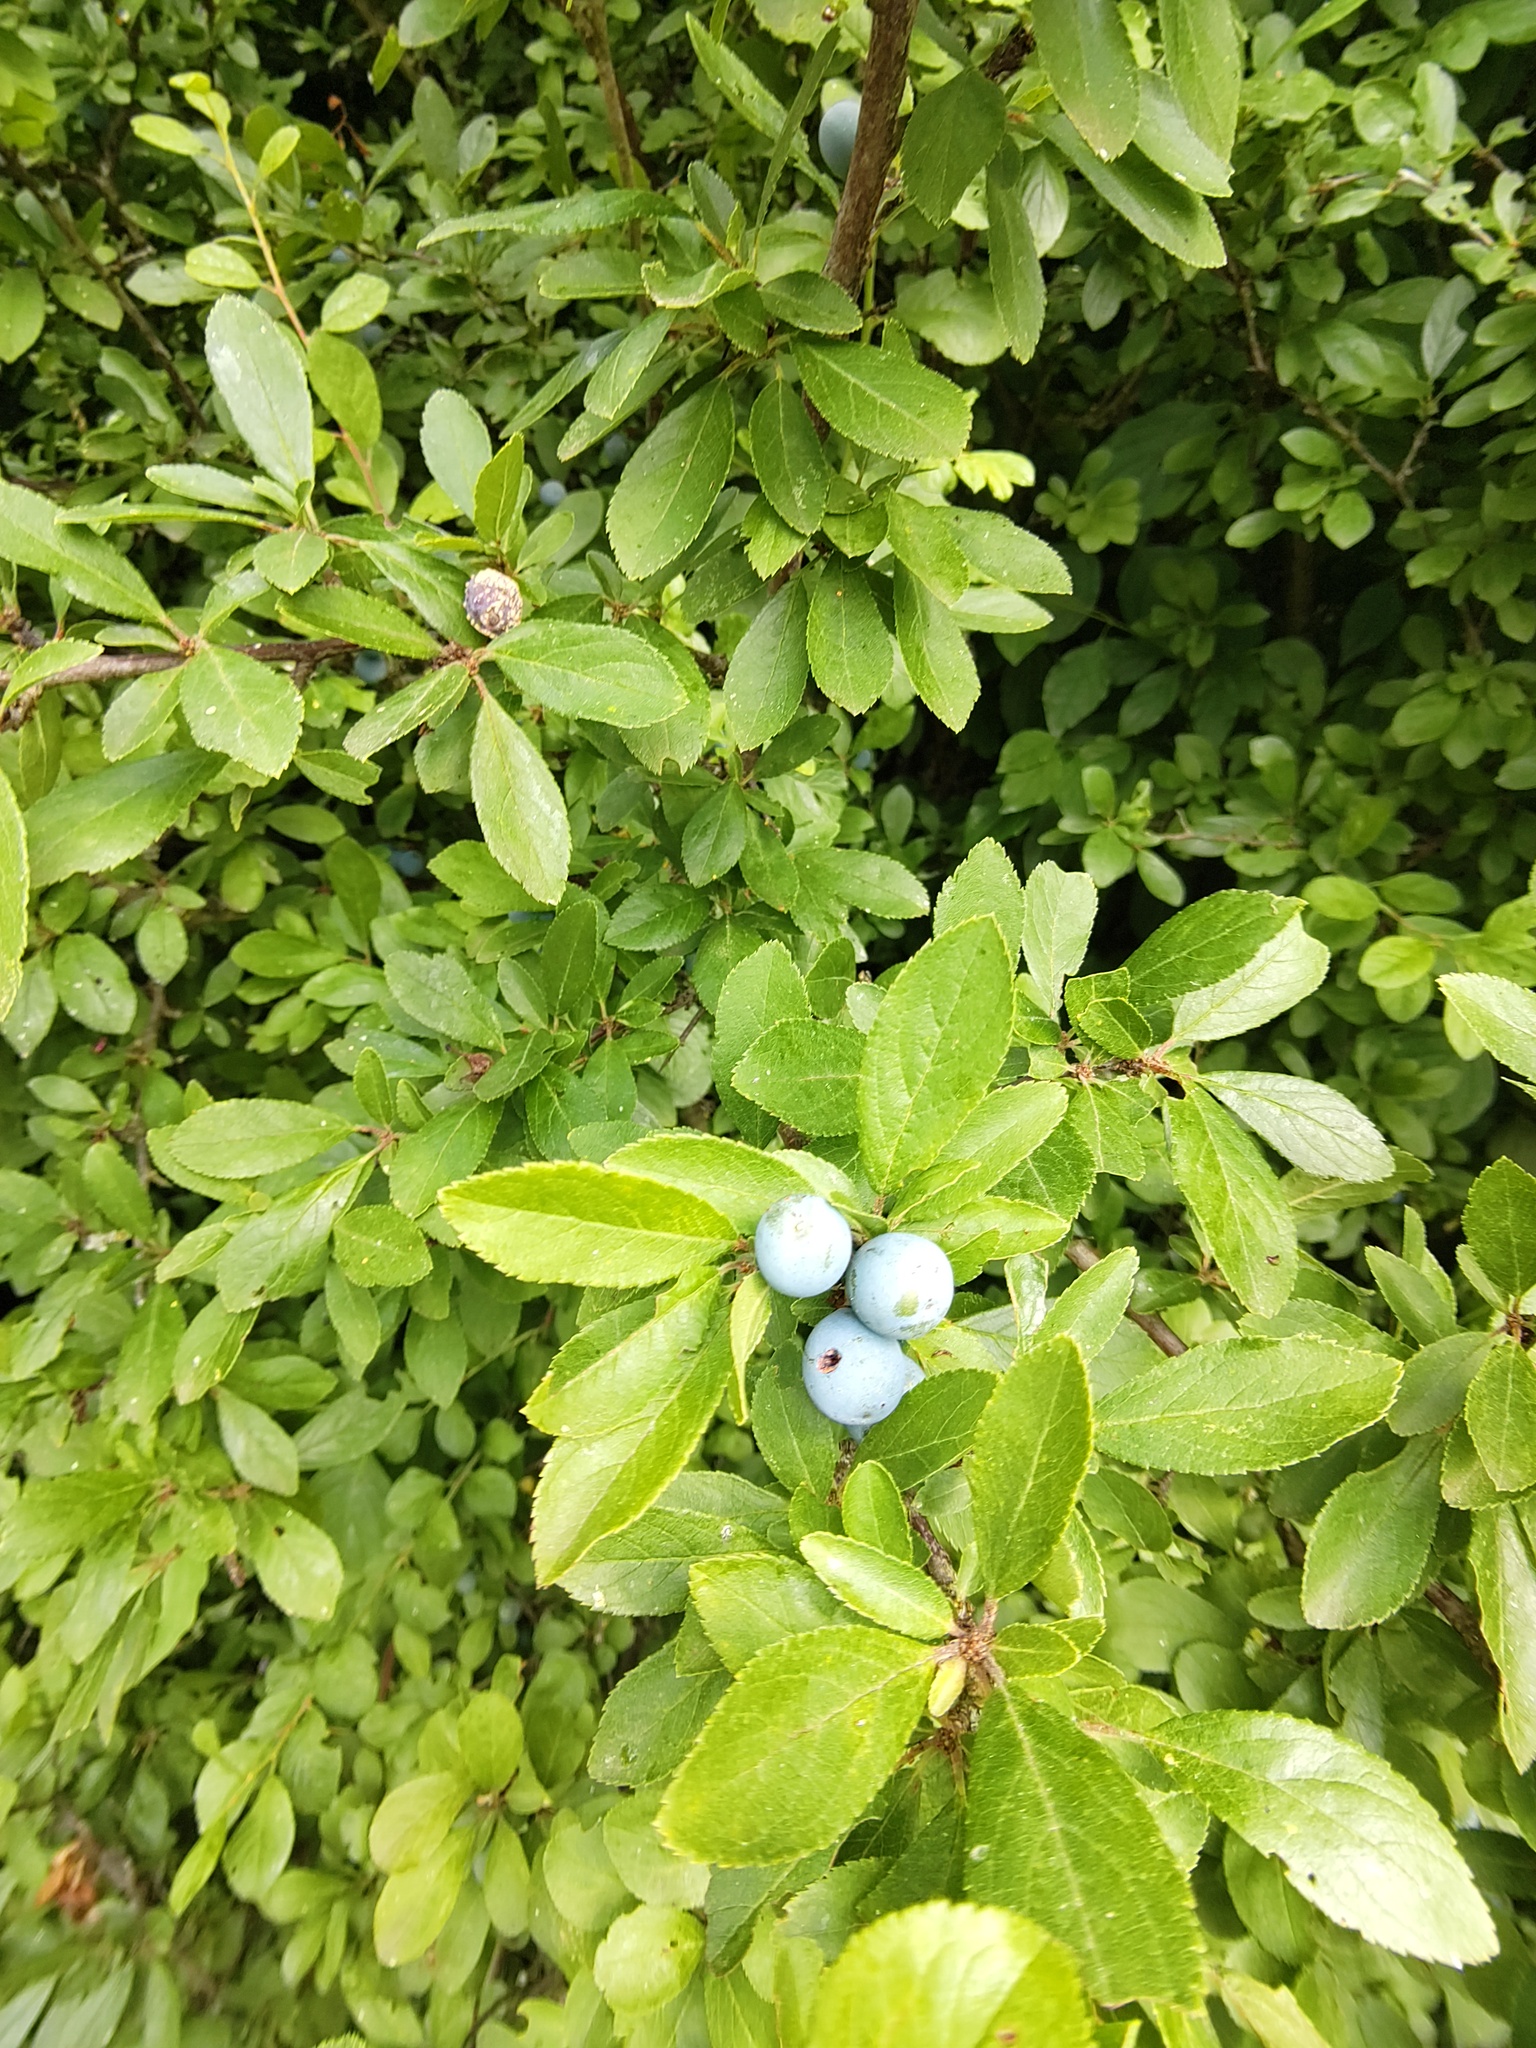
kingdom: Plantae
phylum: Tracheophyta
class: Magnoliopsida
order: Rosales
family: Rosaceae
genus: Prunus
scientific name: Prunus spinosa
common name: Blackthorn
